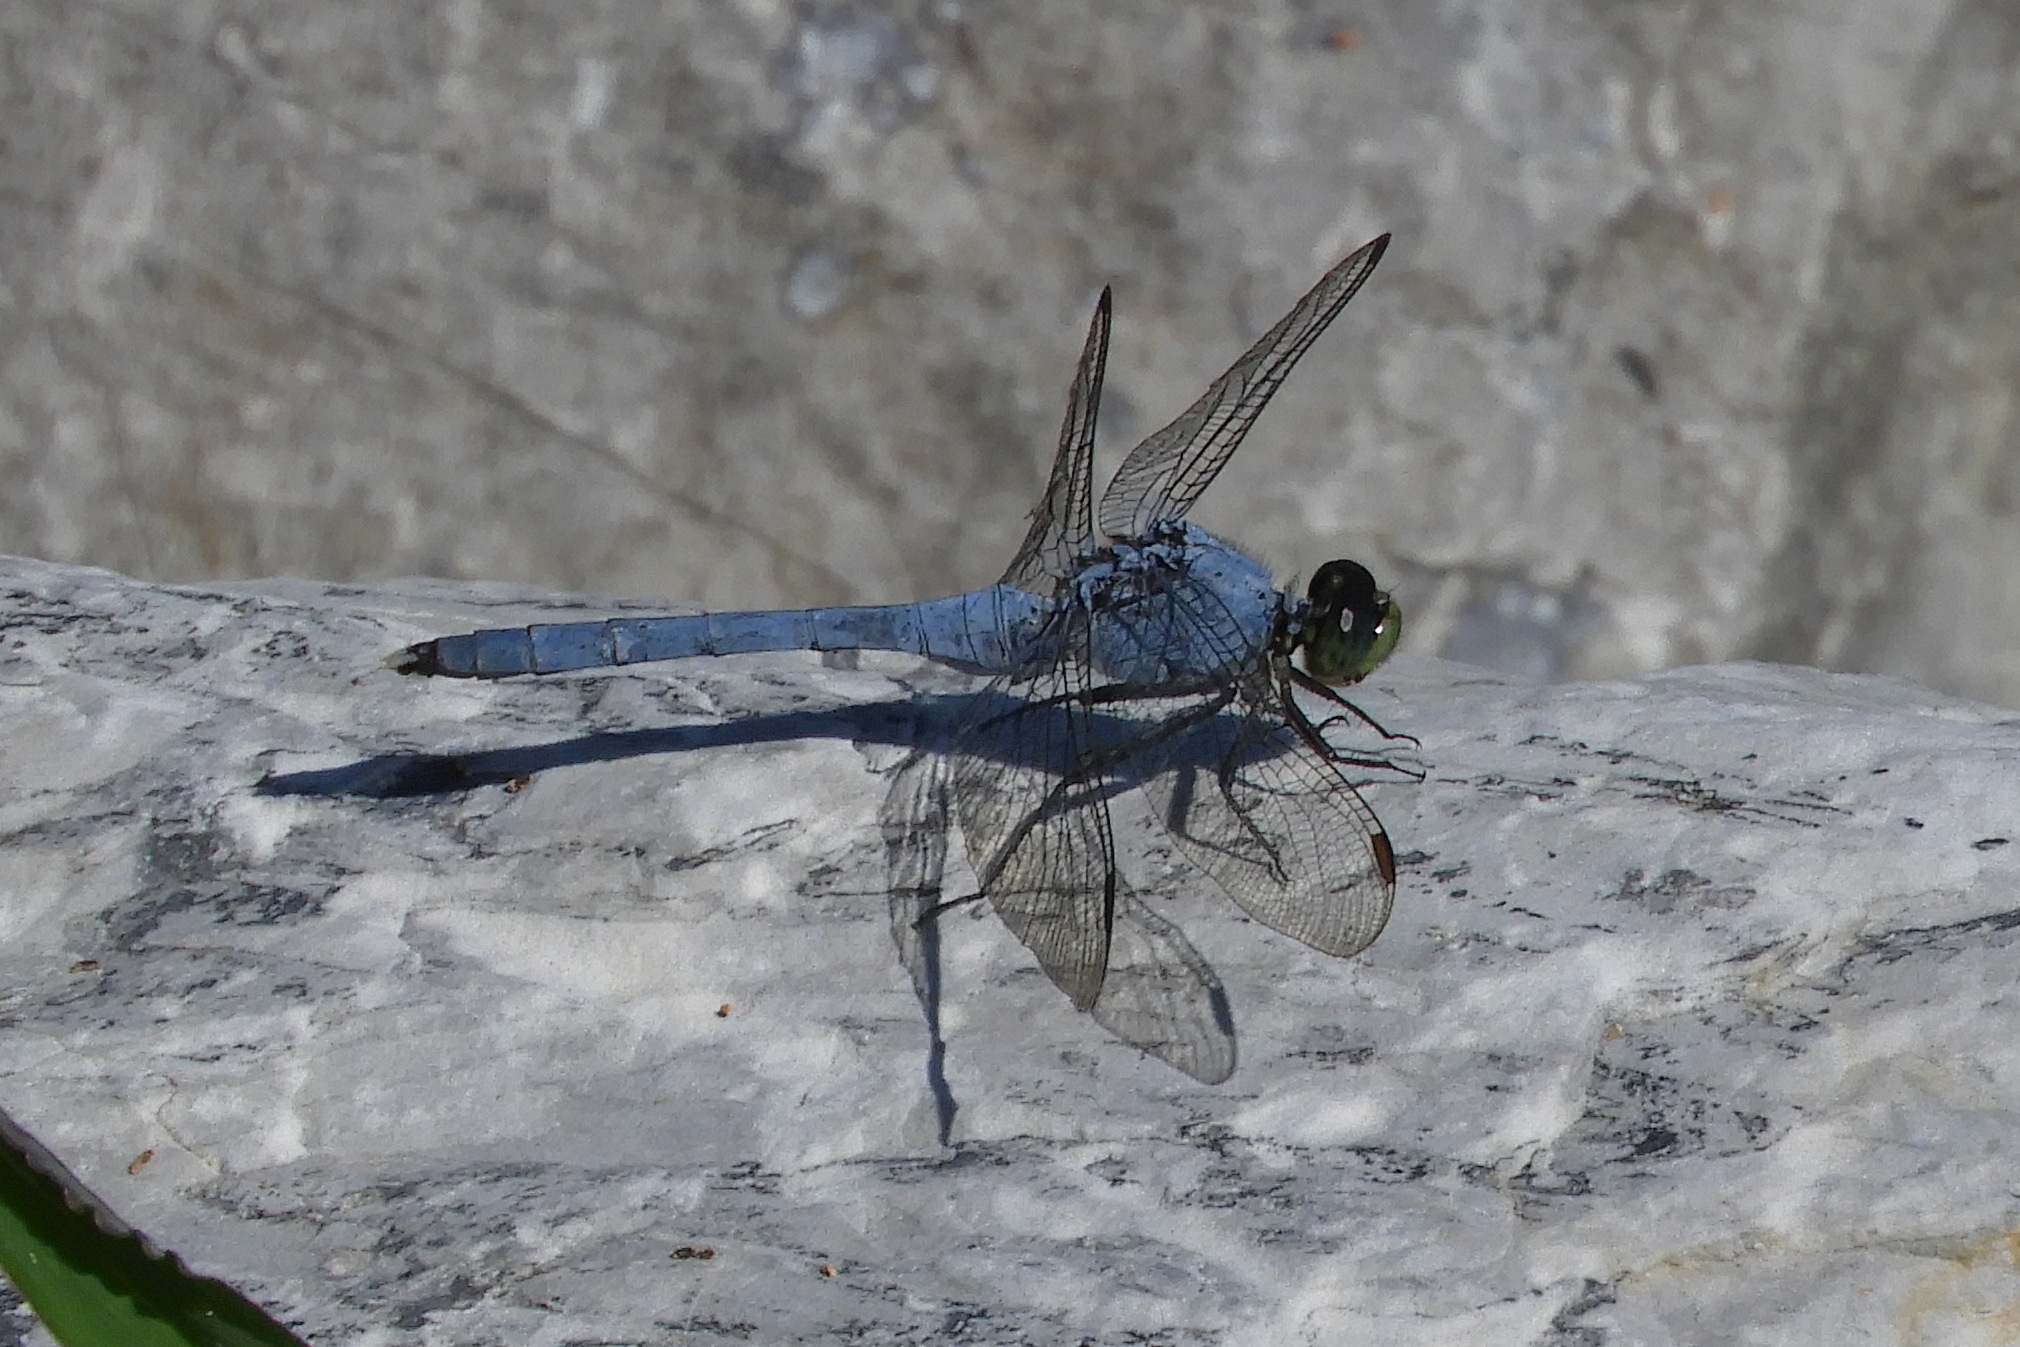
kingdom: Animalia
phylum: Arthropoda
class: Insecta
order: Odonata
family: Libellulidae
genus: Erythemis
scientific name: Erythemis simplicicollis
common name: Eastern pondhawk
